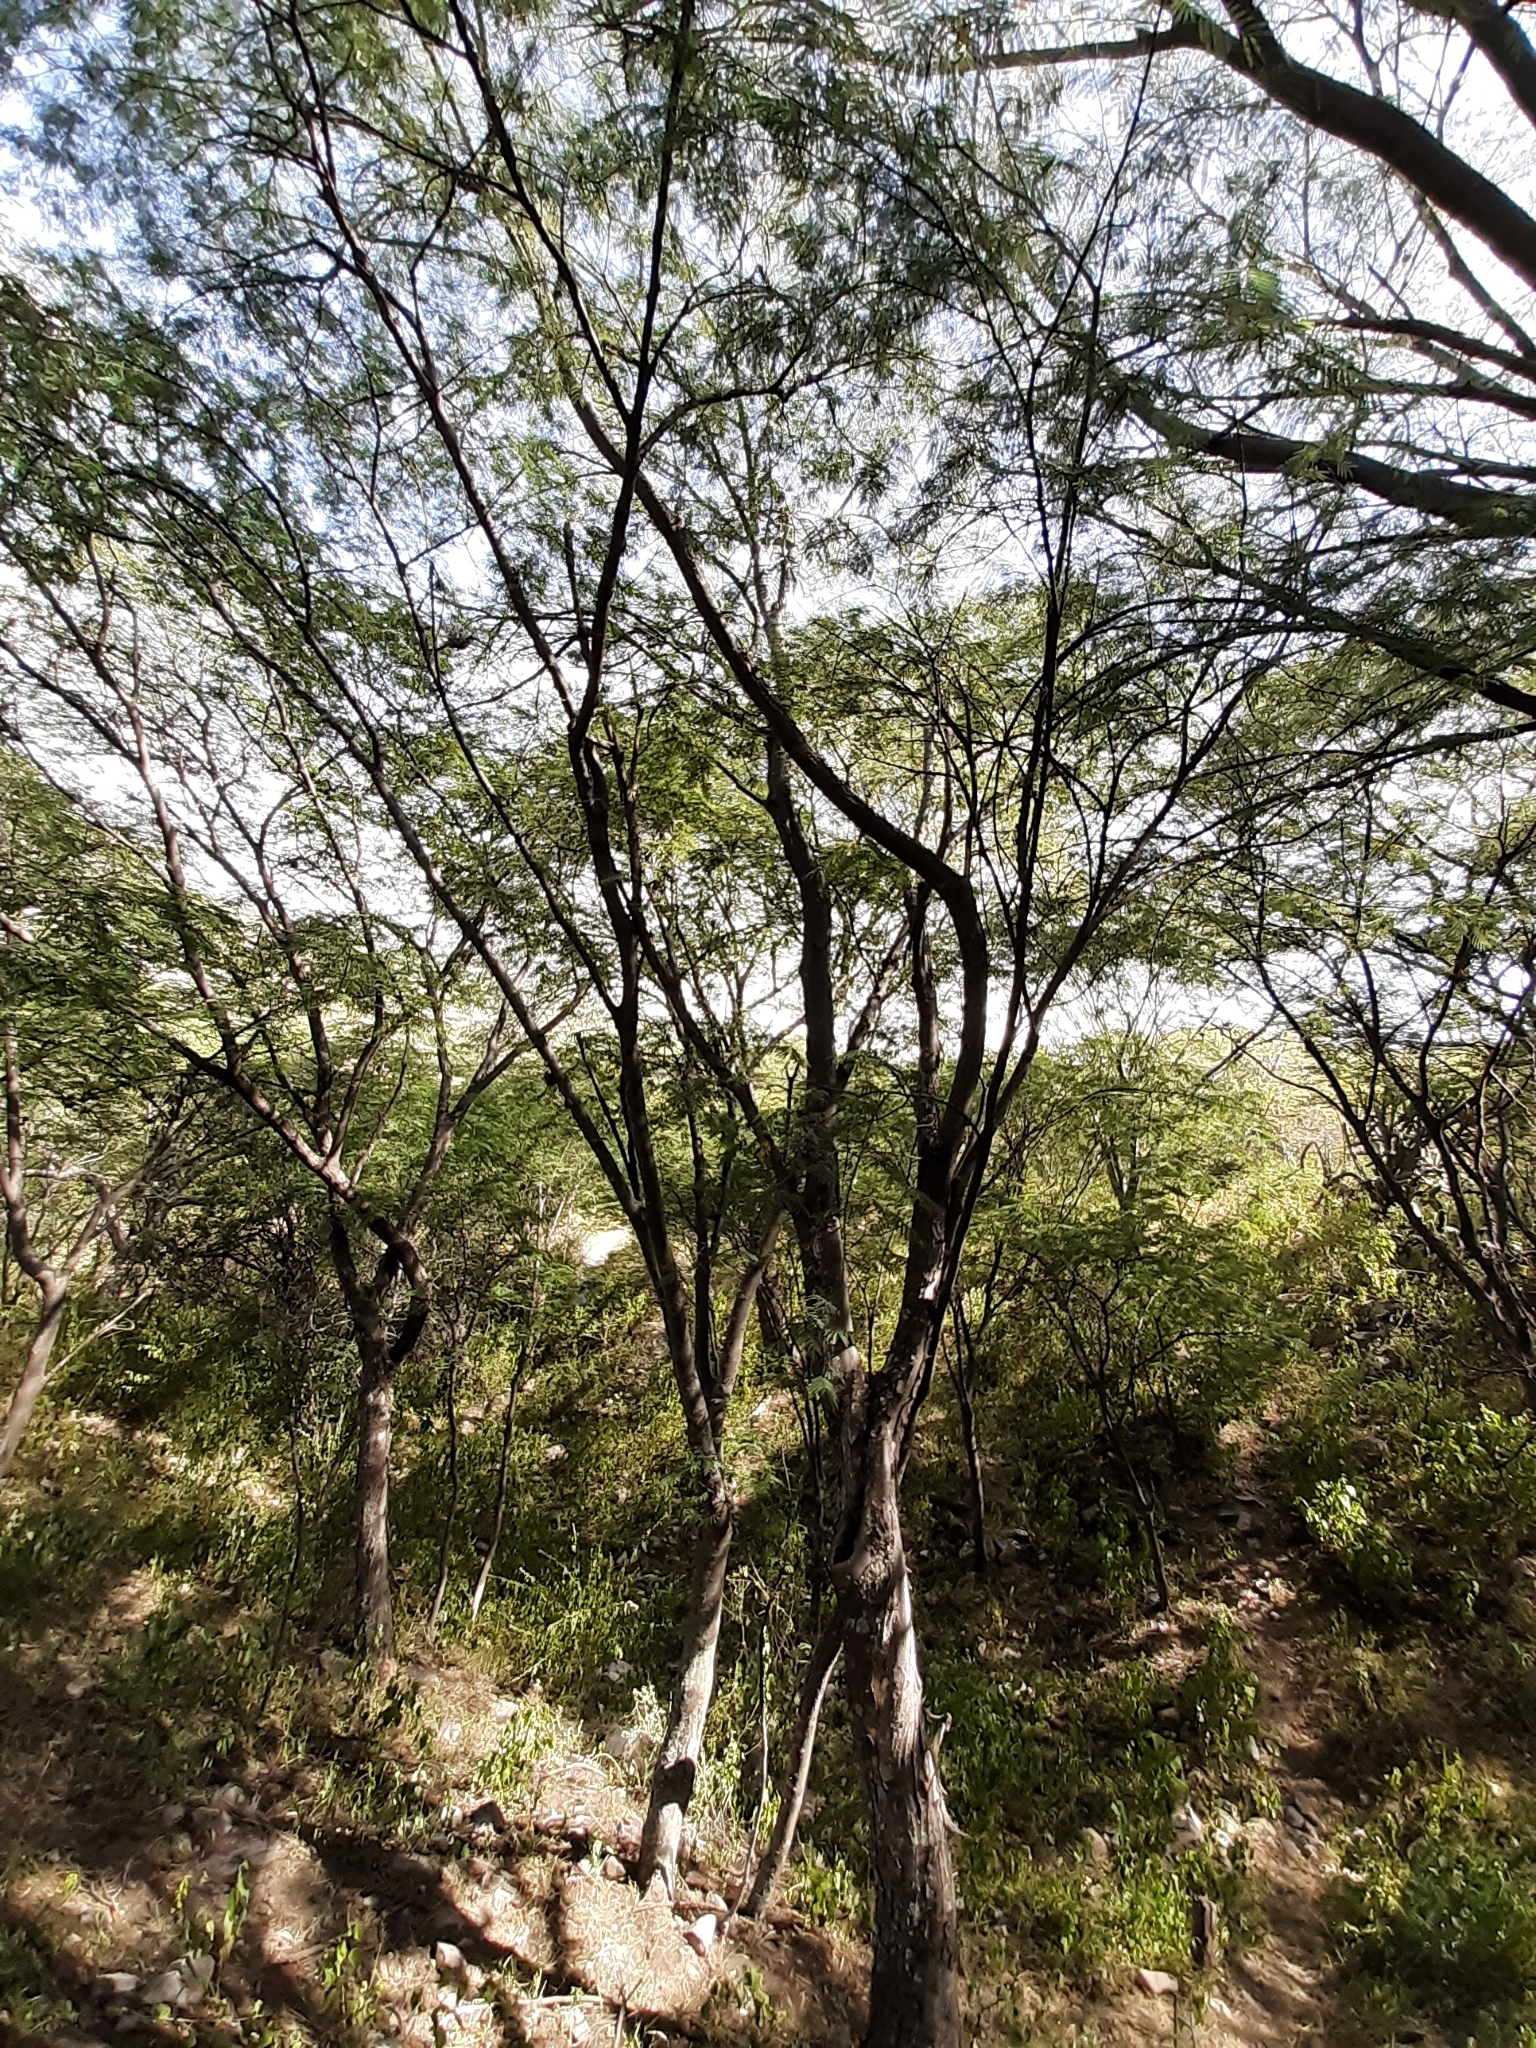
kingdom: Plantae
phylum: Tracheophyta
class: Magnoliopsida
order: Fabales
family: Fabaceae
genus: Lysiloma
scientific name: Lysiloma divaricatum
